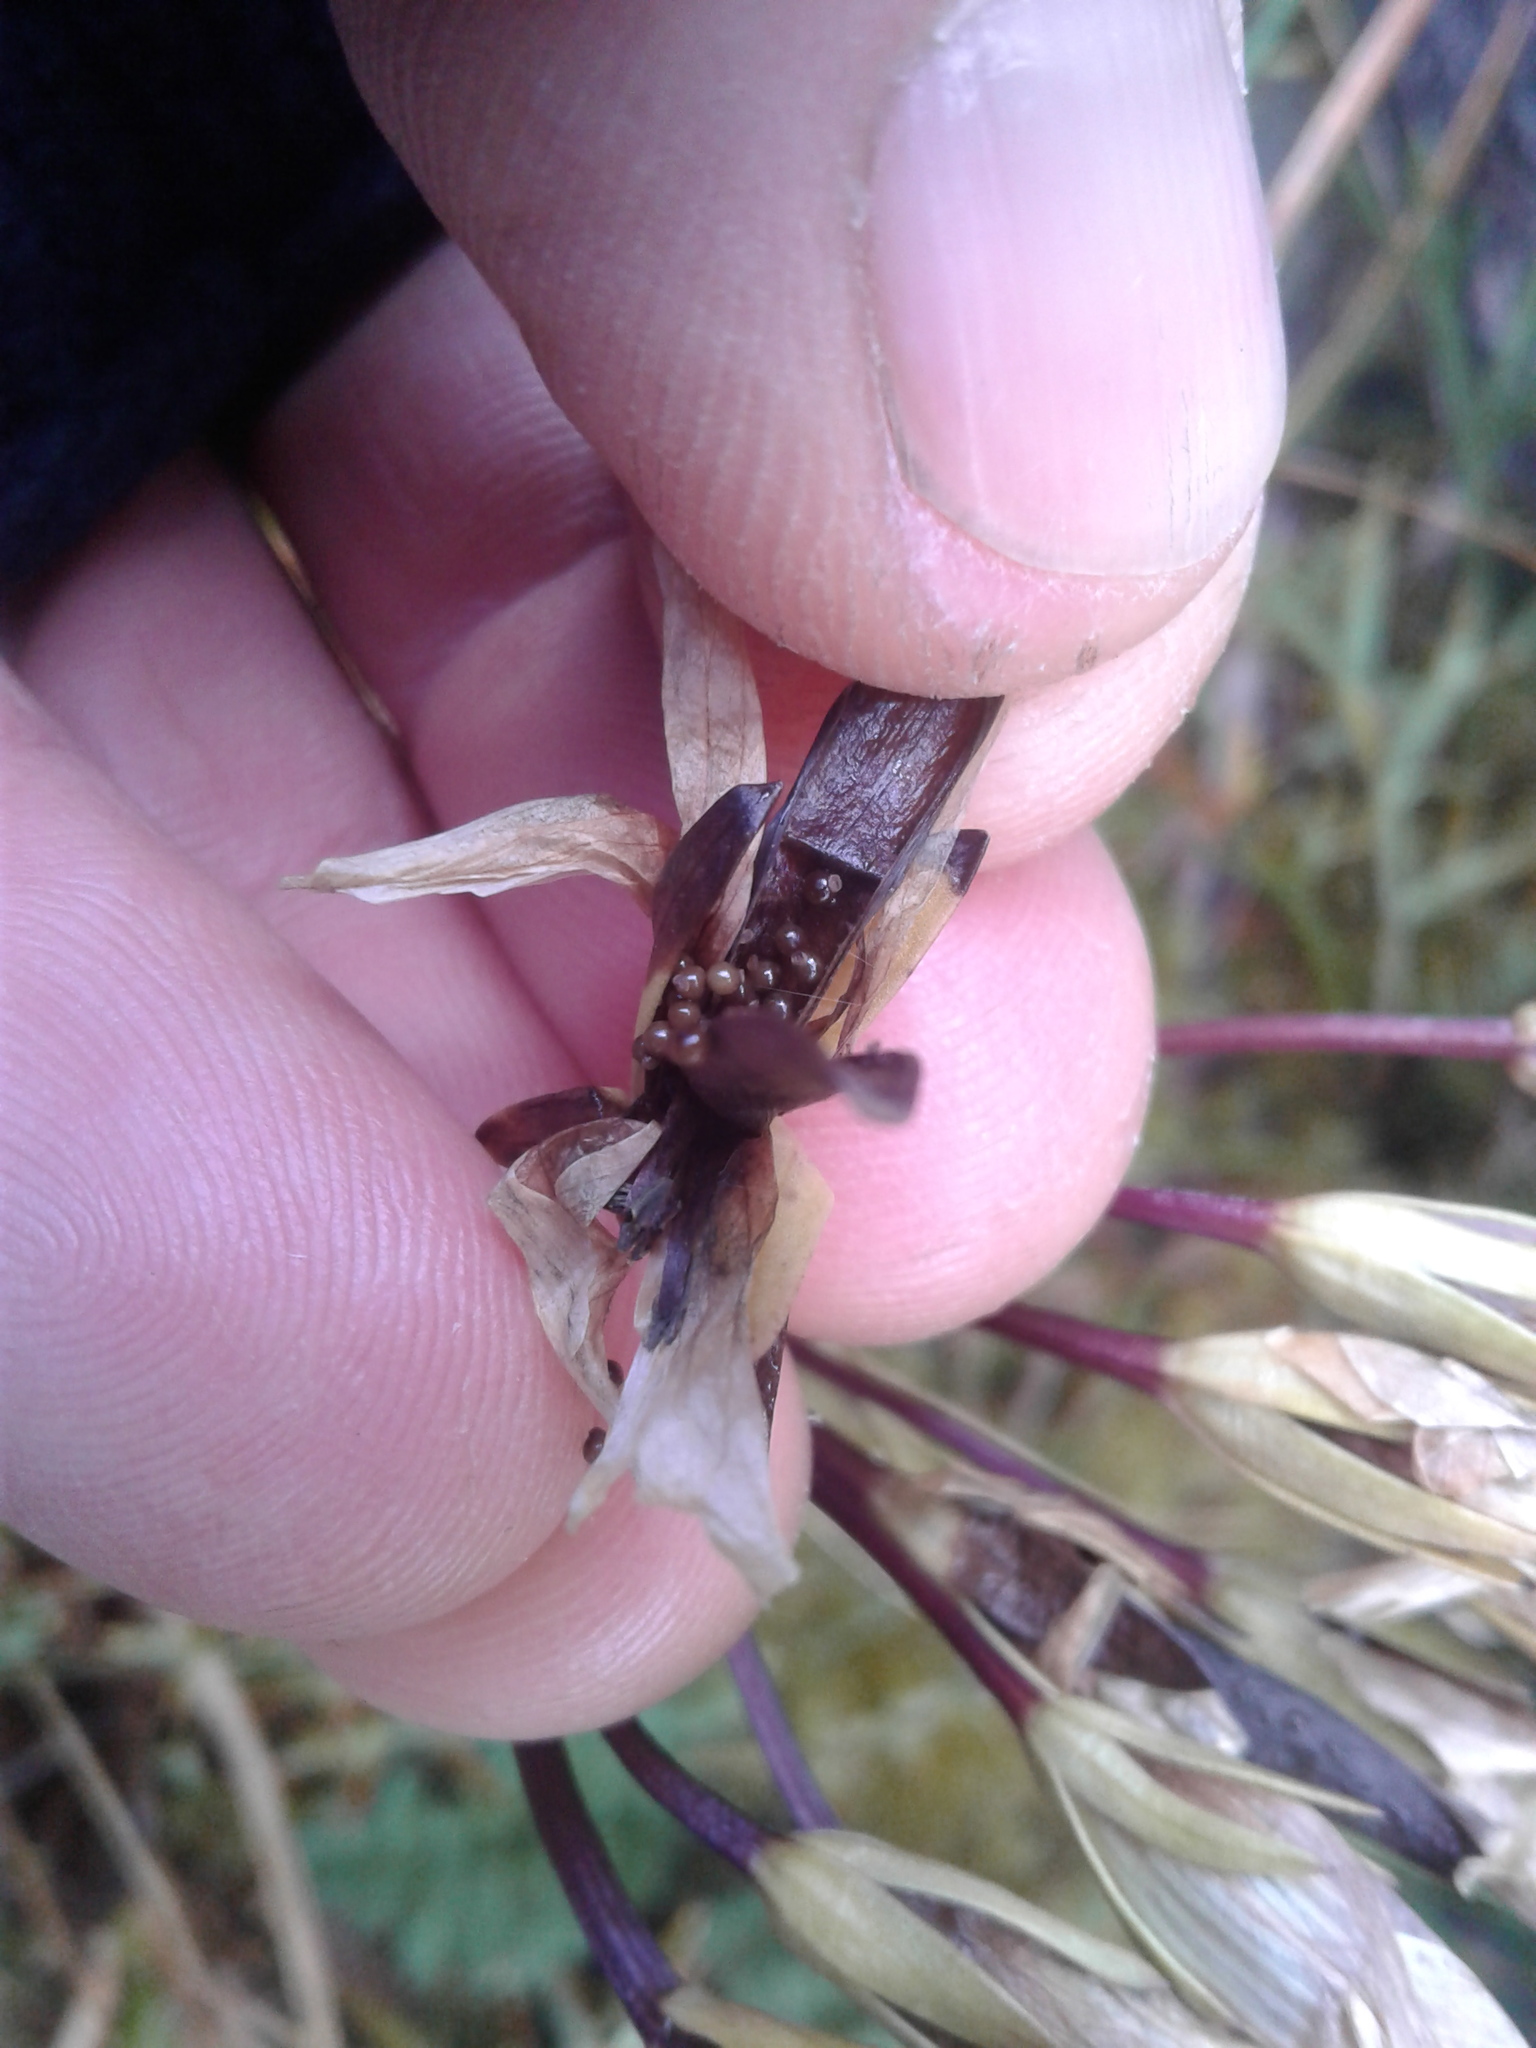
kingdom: Plantae
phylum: Tracheophyta
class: Magnoliopsida
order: Gentianales
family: Gentianaceae
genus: Gentianella
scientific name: Gentianella montana
